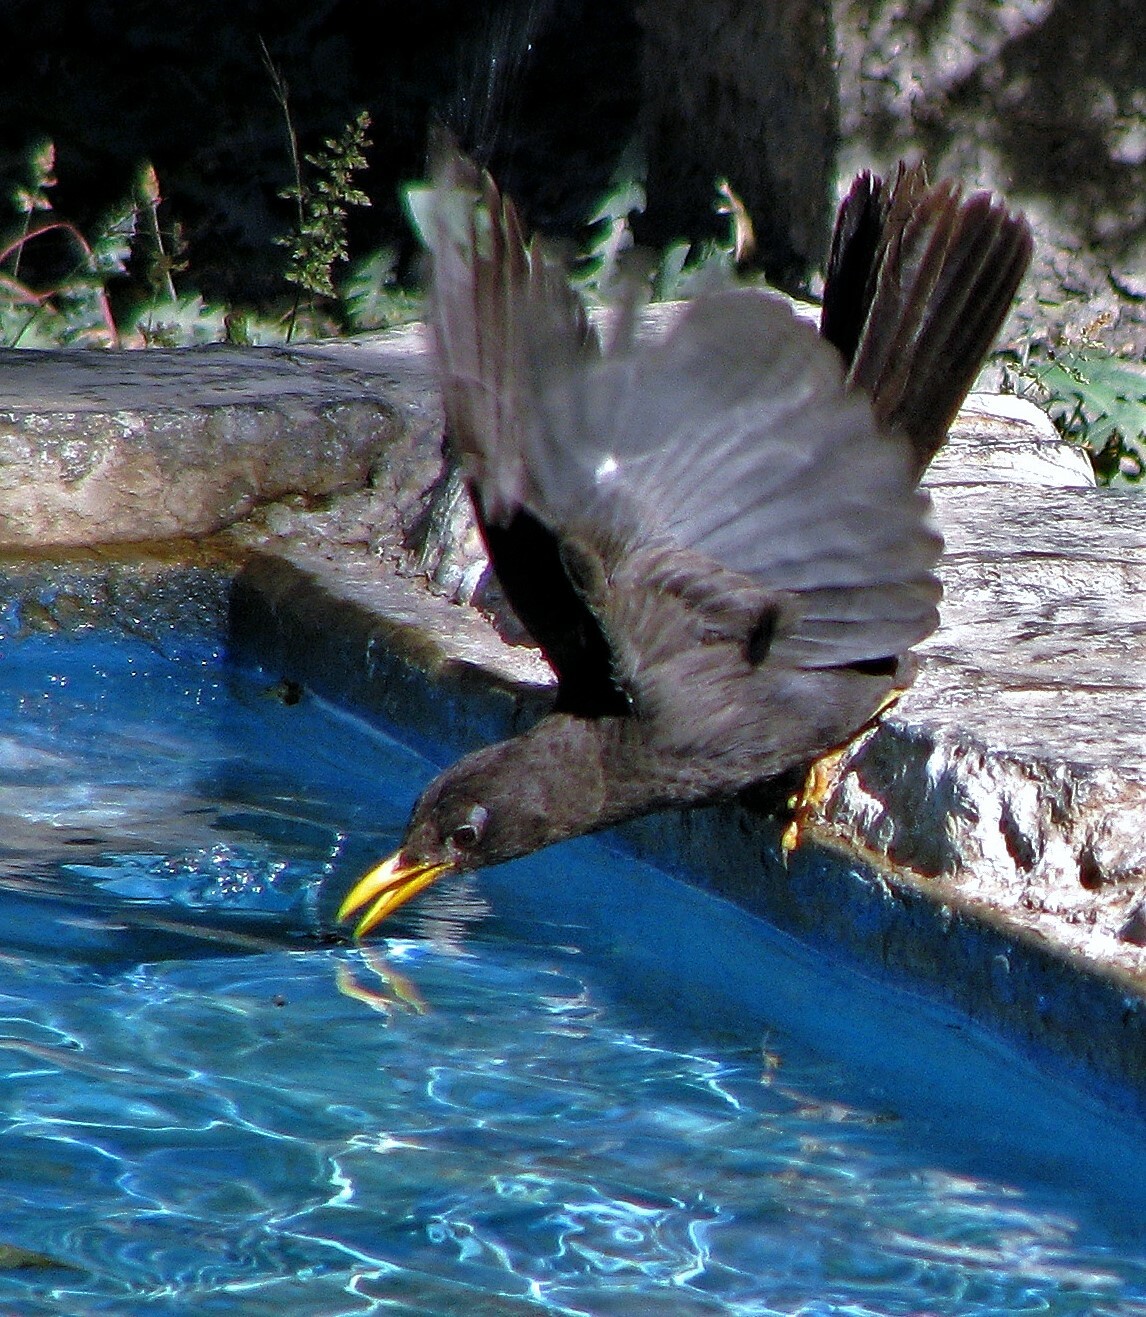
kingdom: Animalia
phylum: Chordata
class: Aves
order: Passeriformes
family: Turdidae
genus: Turdus
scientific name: Turdus chiguanco
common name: Chiguanco thrush
